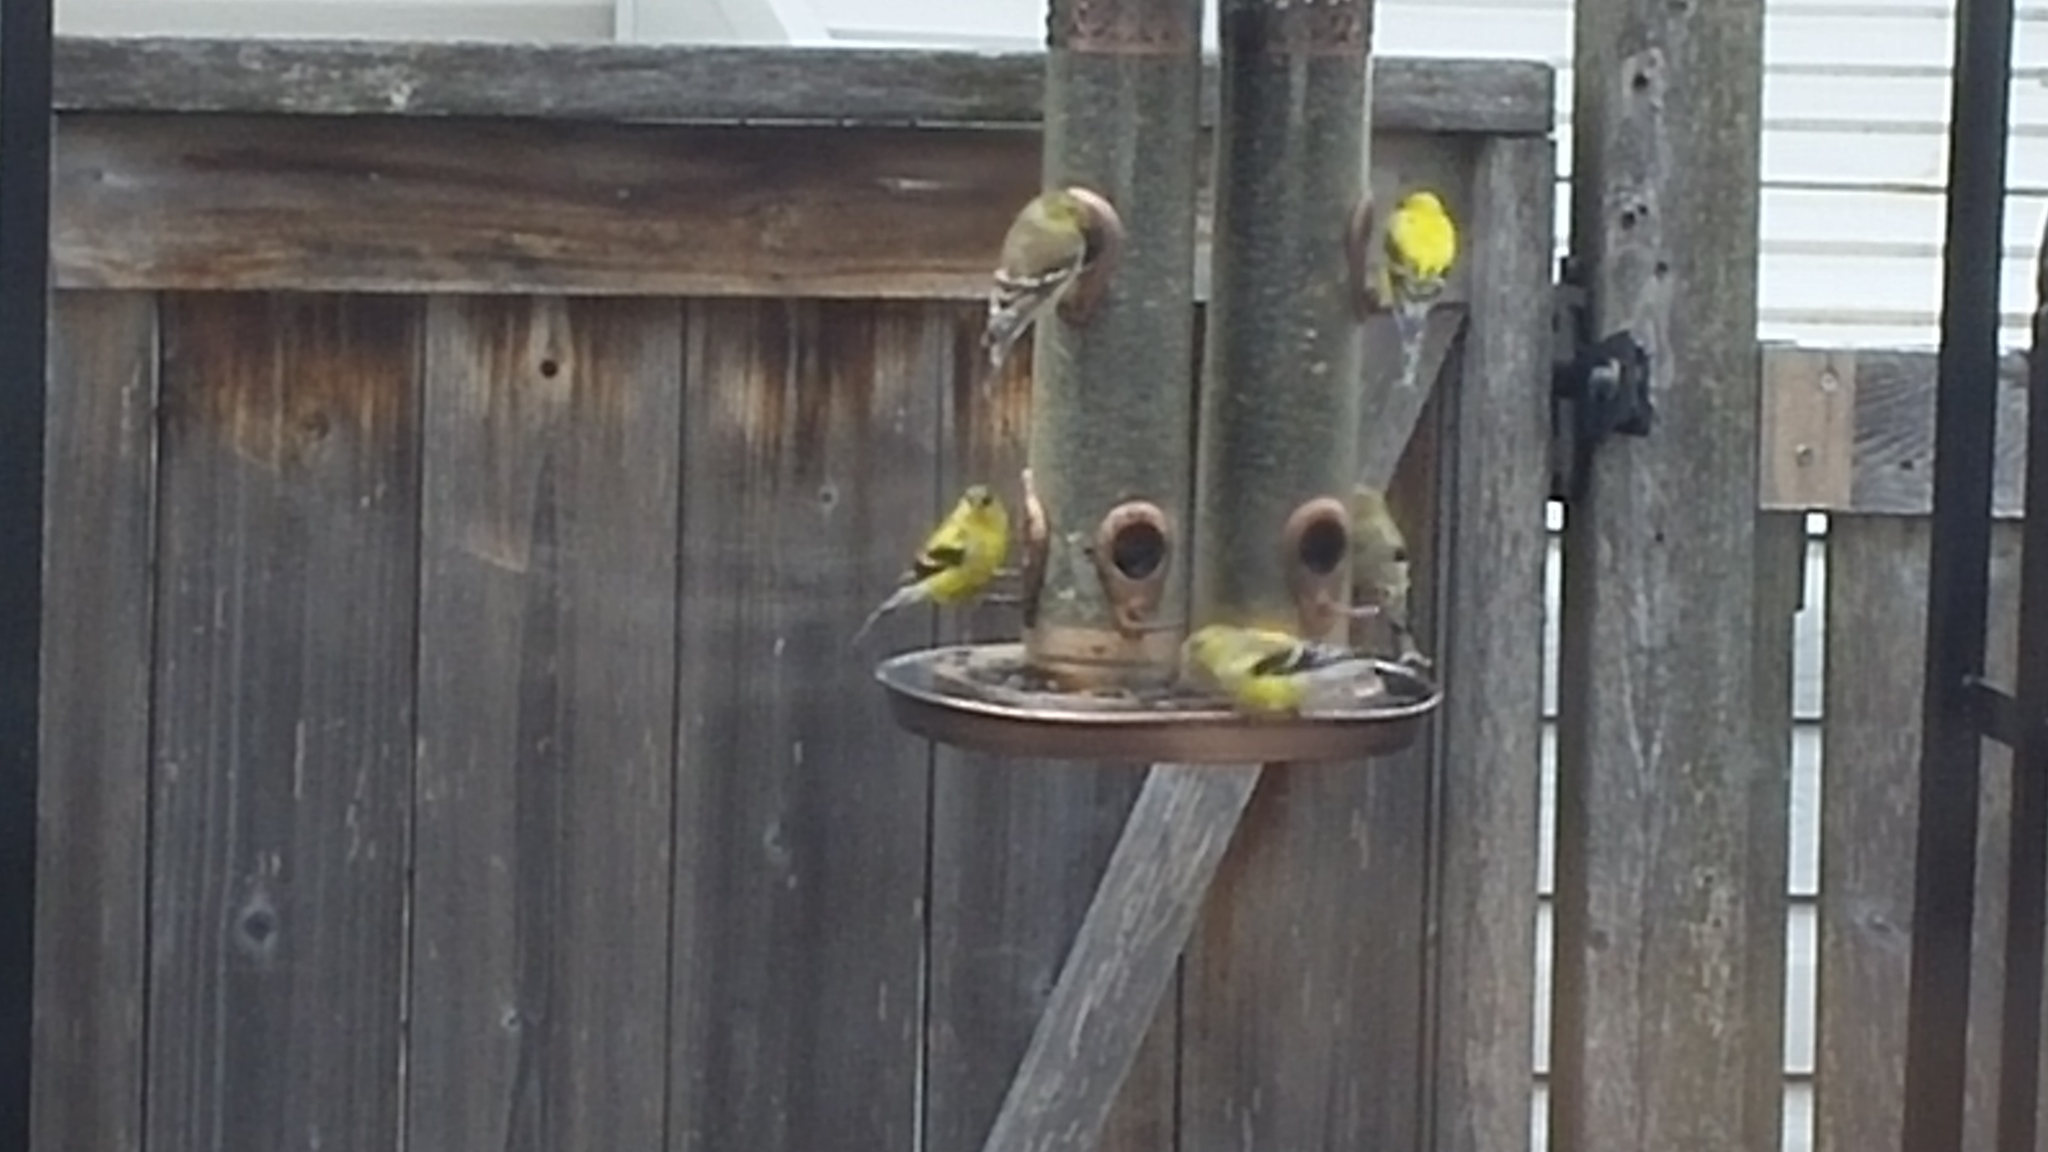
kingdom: Animalia
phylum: Chordata
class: Aves
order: Passeriformes
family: Fringillidae
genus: Spinus
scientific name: Spinus tristis
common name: American goldfinch
